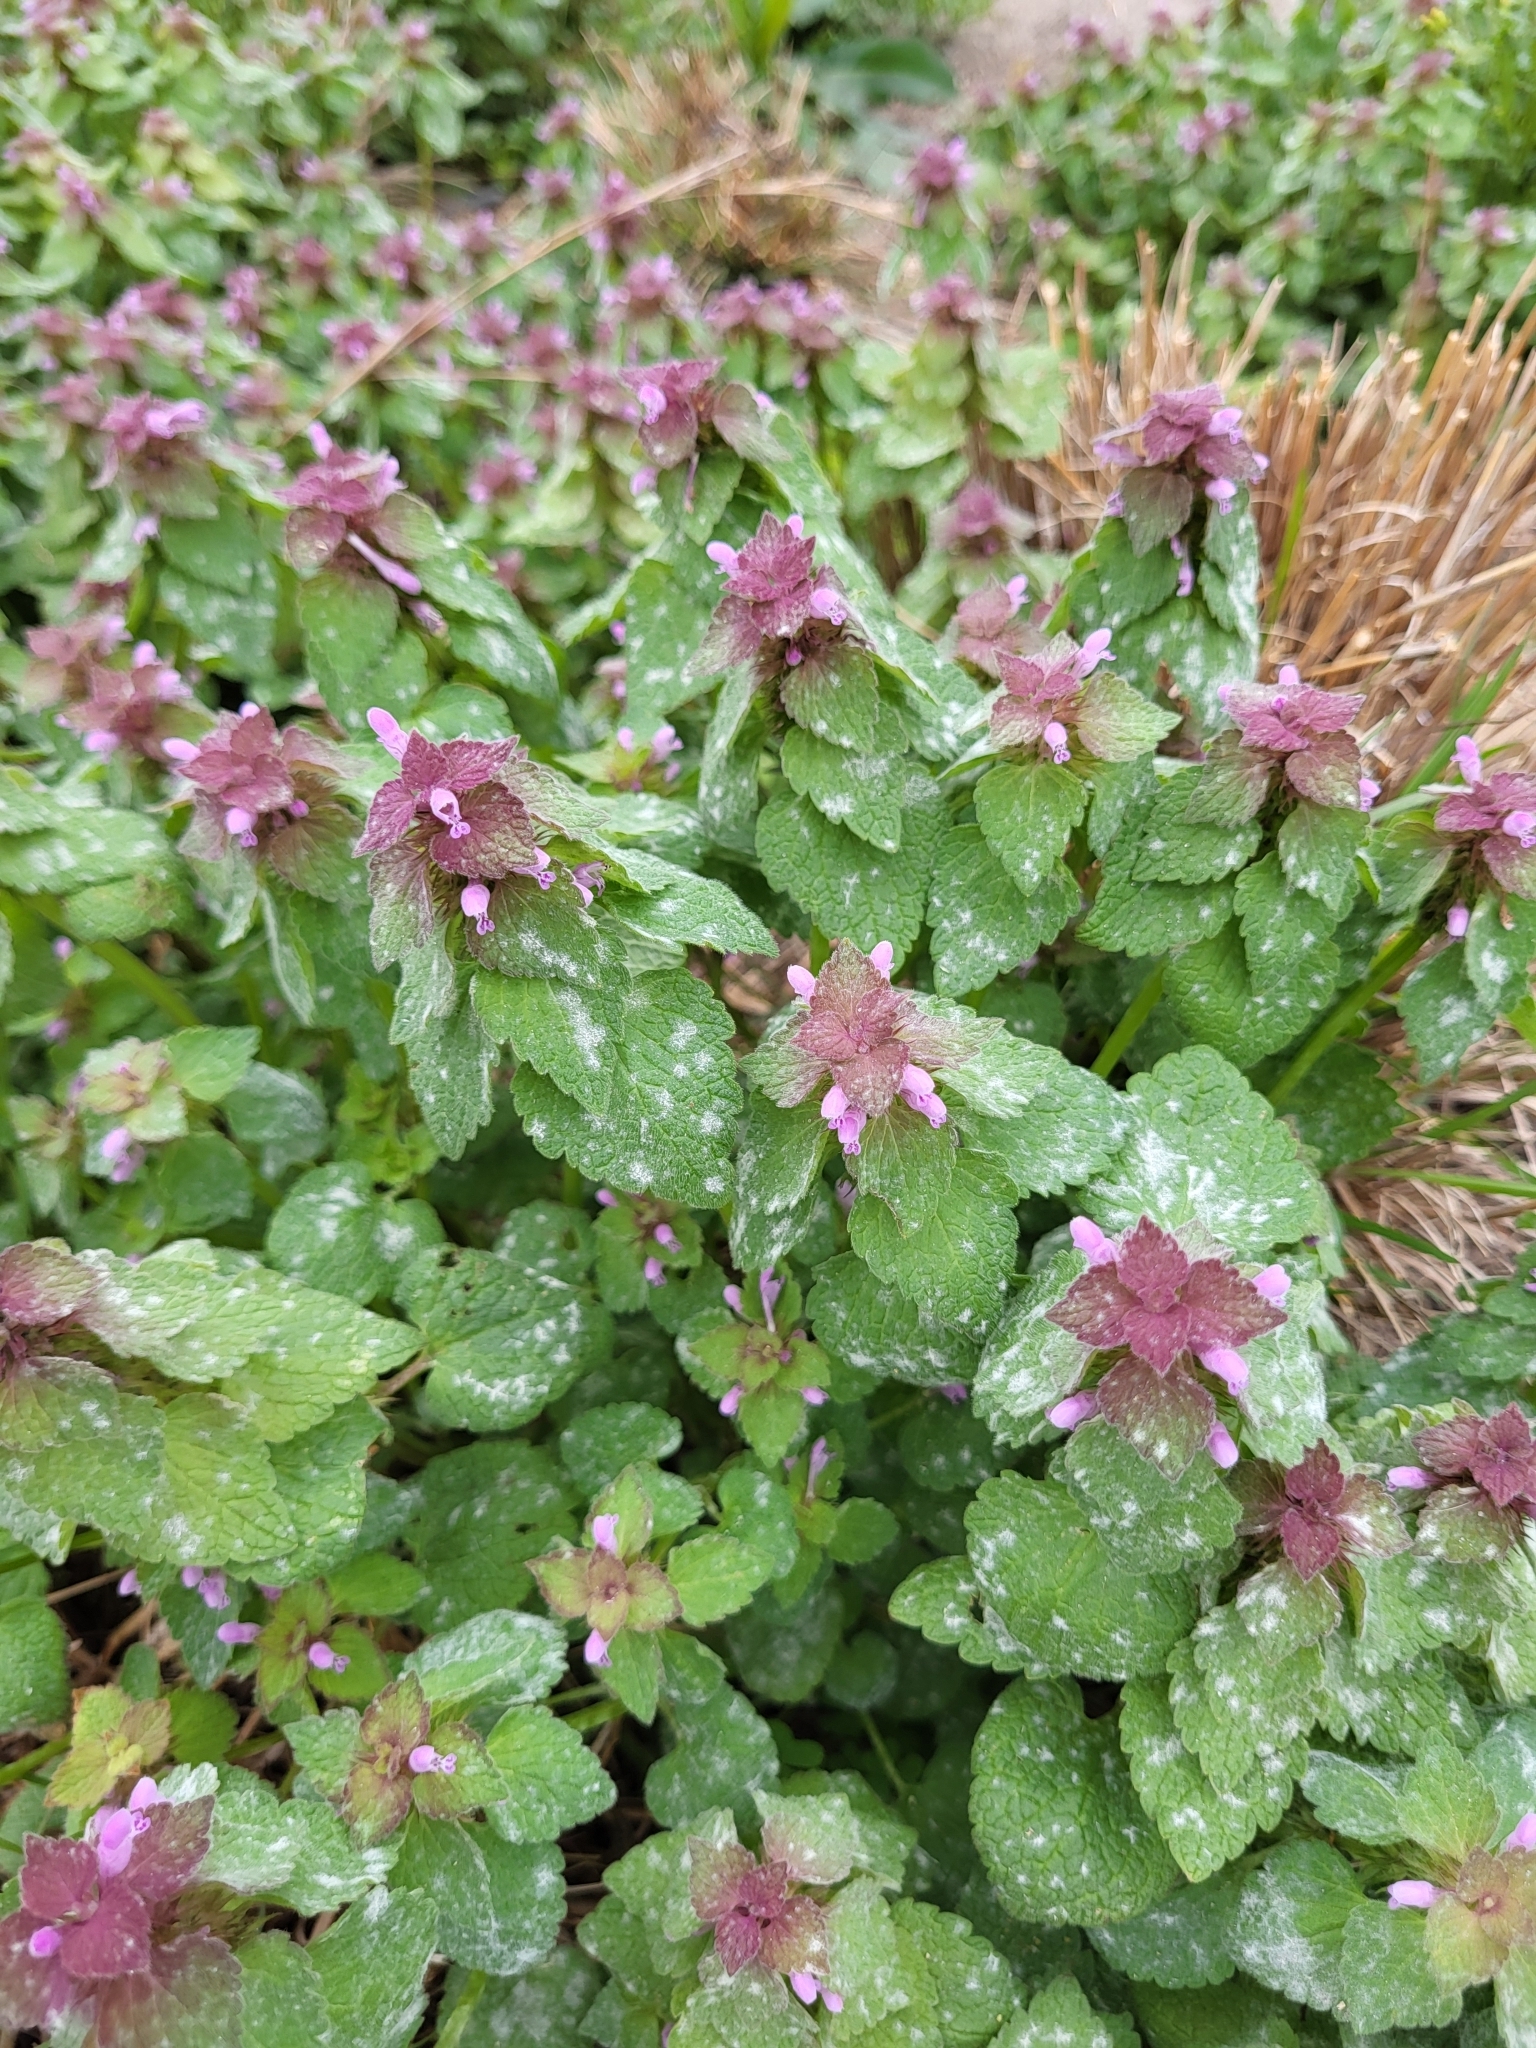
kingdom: Plantae
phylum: Tracheophyta
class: Magnoliopsida
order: Lamiales
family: Lamiaceae
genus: Lamium
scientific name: Lamium purpureum
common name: Red dead-nettle
